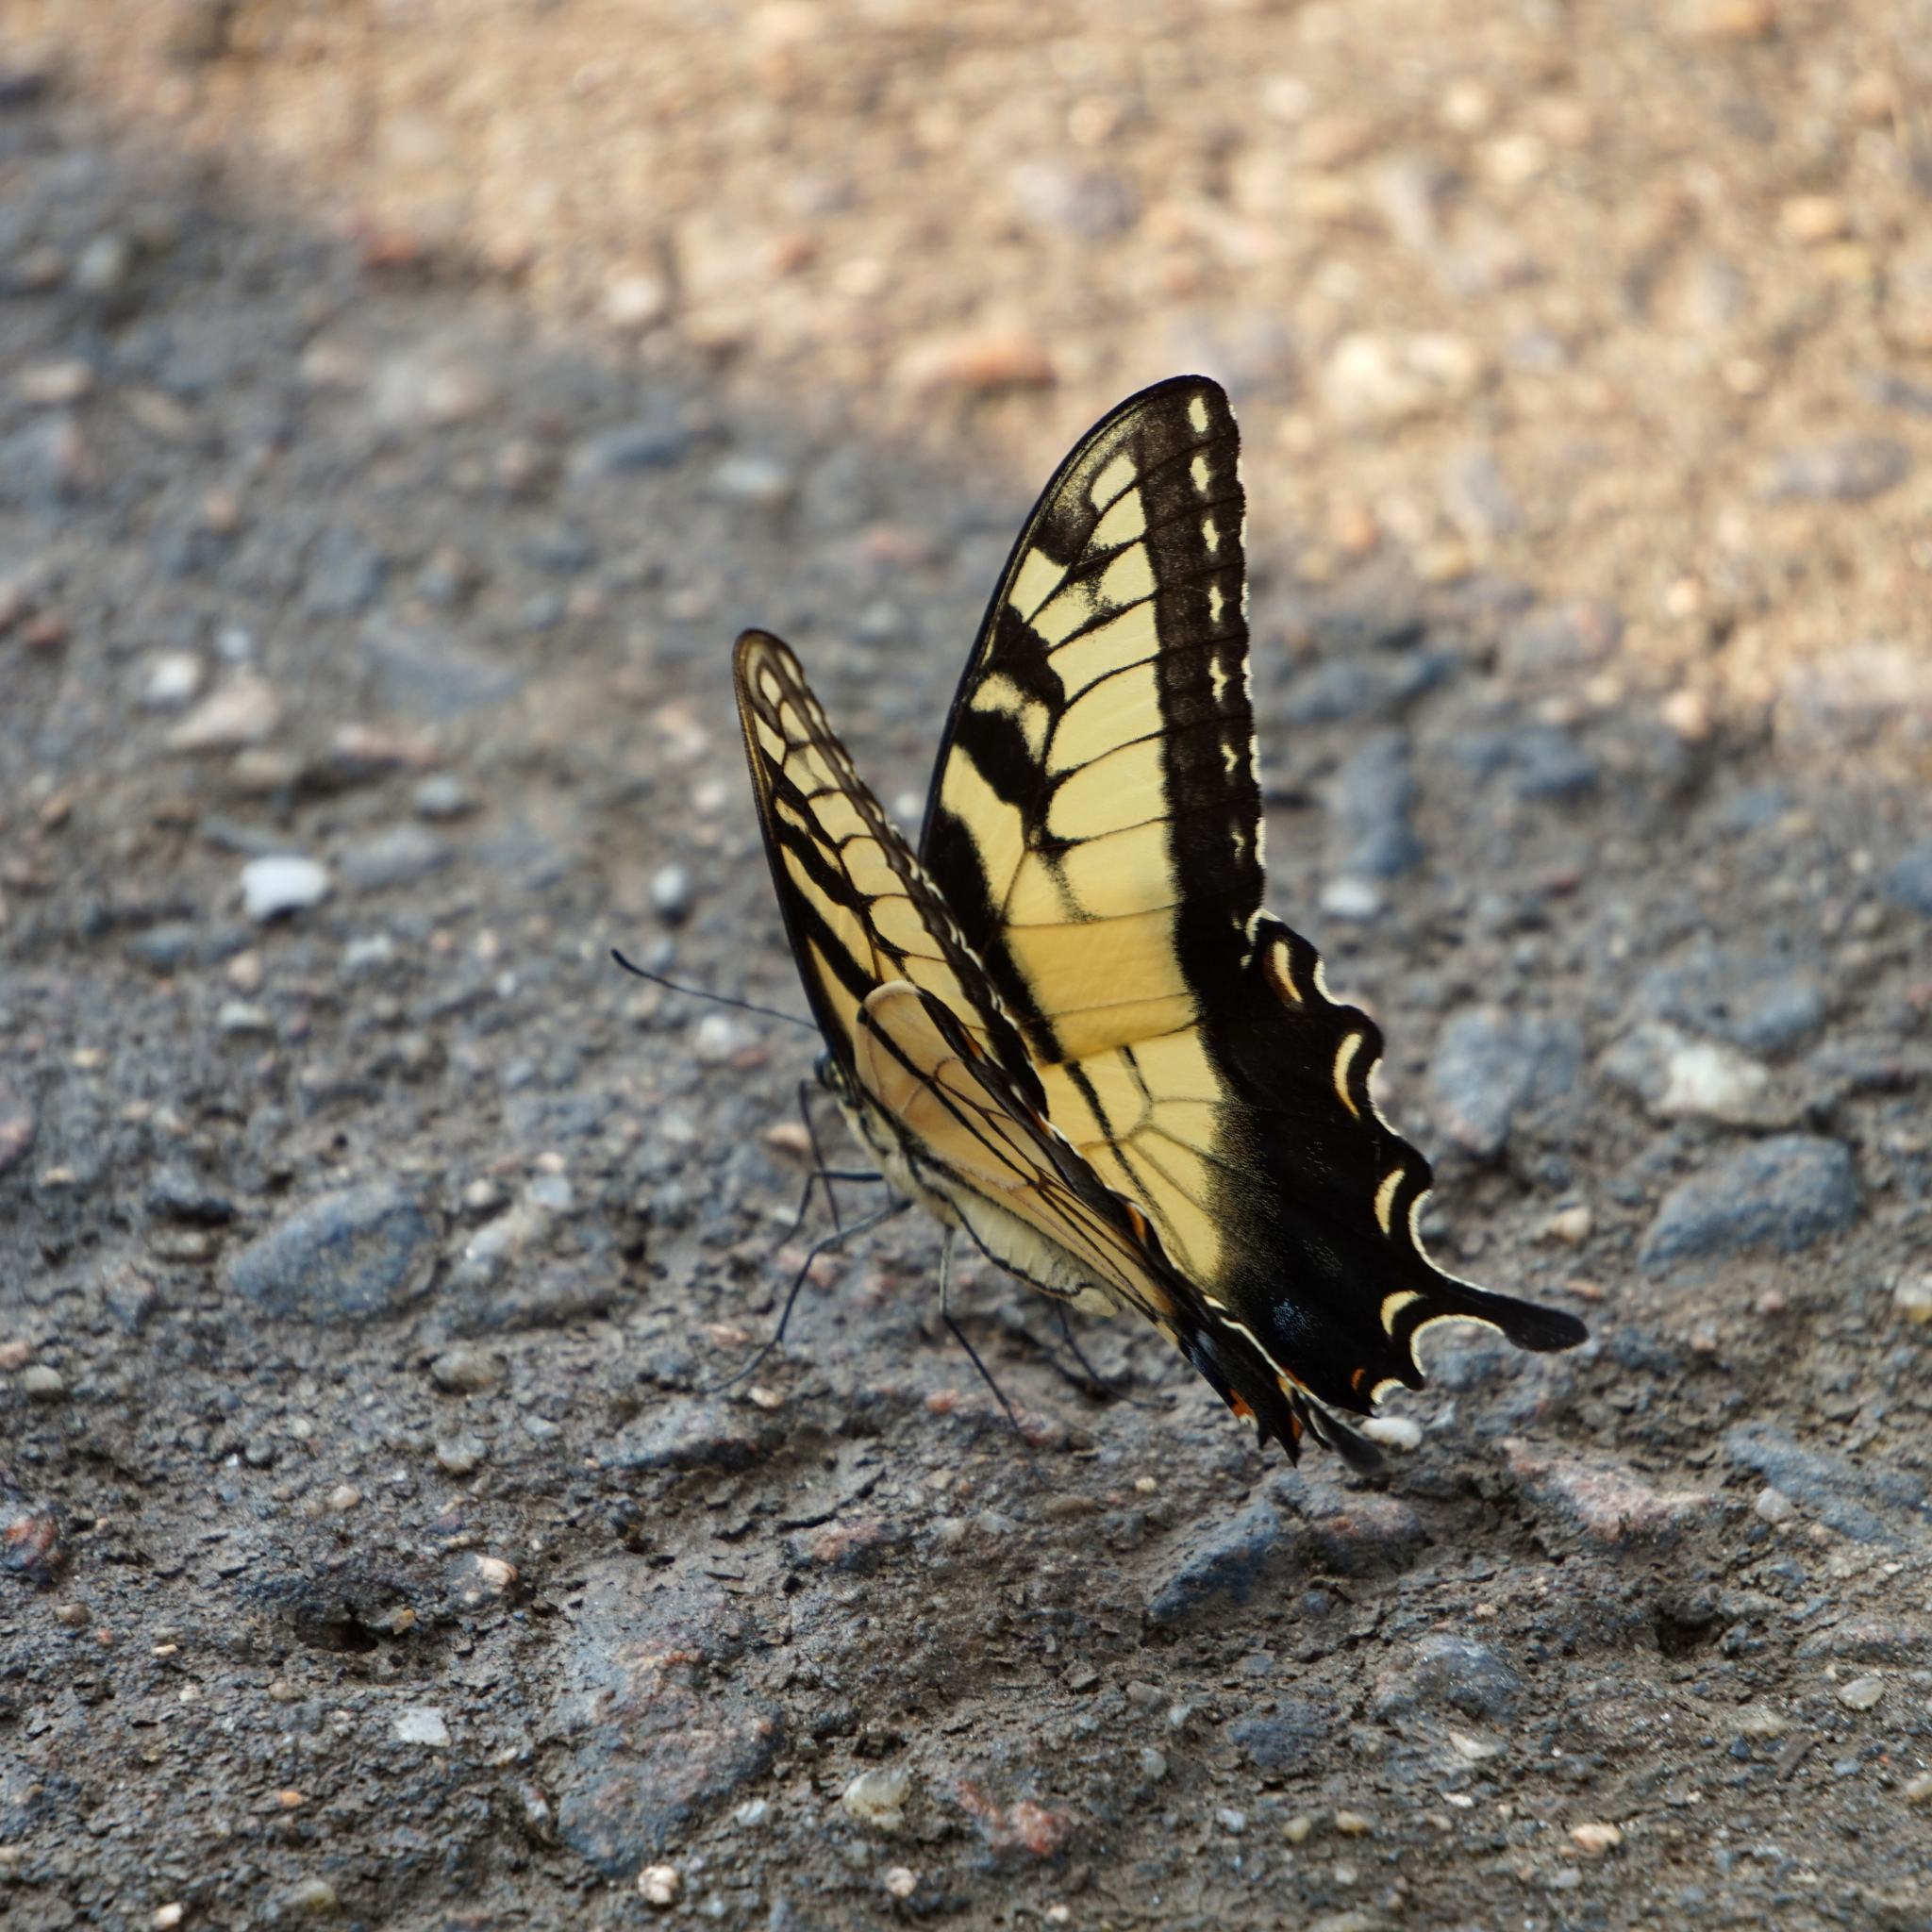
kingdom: Animalia
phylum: Arthropoda
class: Insecta
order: Lepidoptera
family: Papilionidae
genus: Papilio
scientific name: Papilio glaucus
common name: Tiger swallowtail
